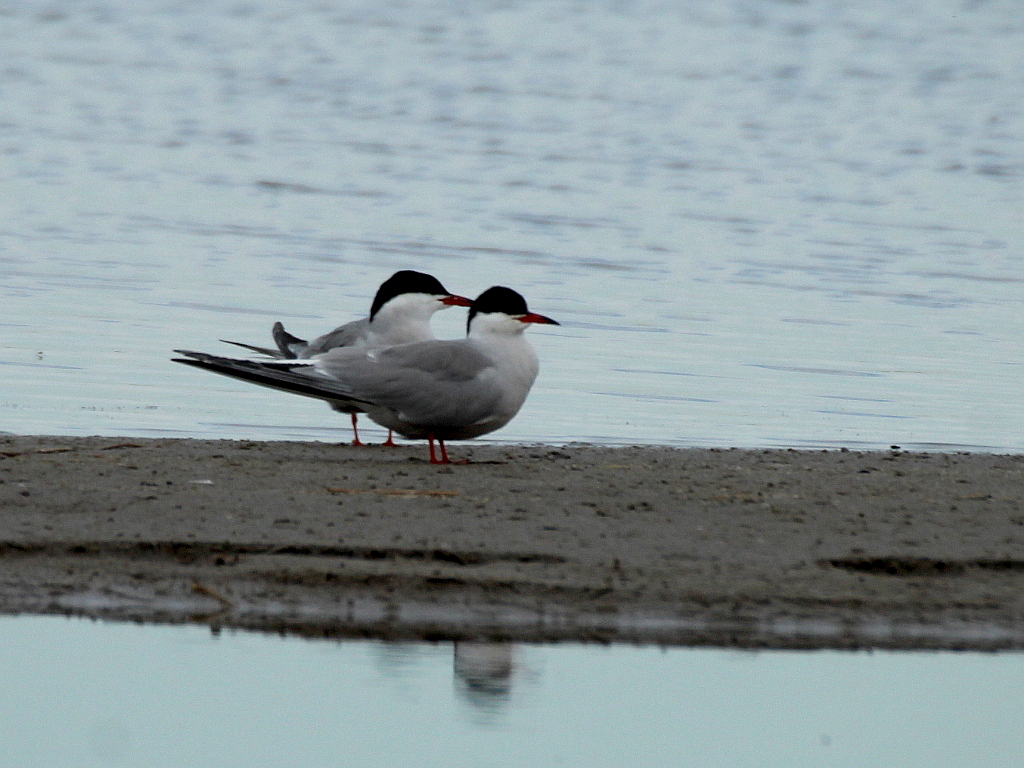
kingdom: Animalia
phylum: Chordata
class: Aves
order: Charadriiformes
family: Laridae
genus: Sterna
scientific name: Sterna hirundo
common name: Common tern
